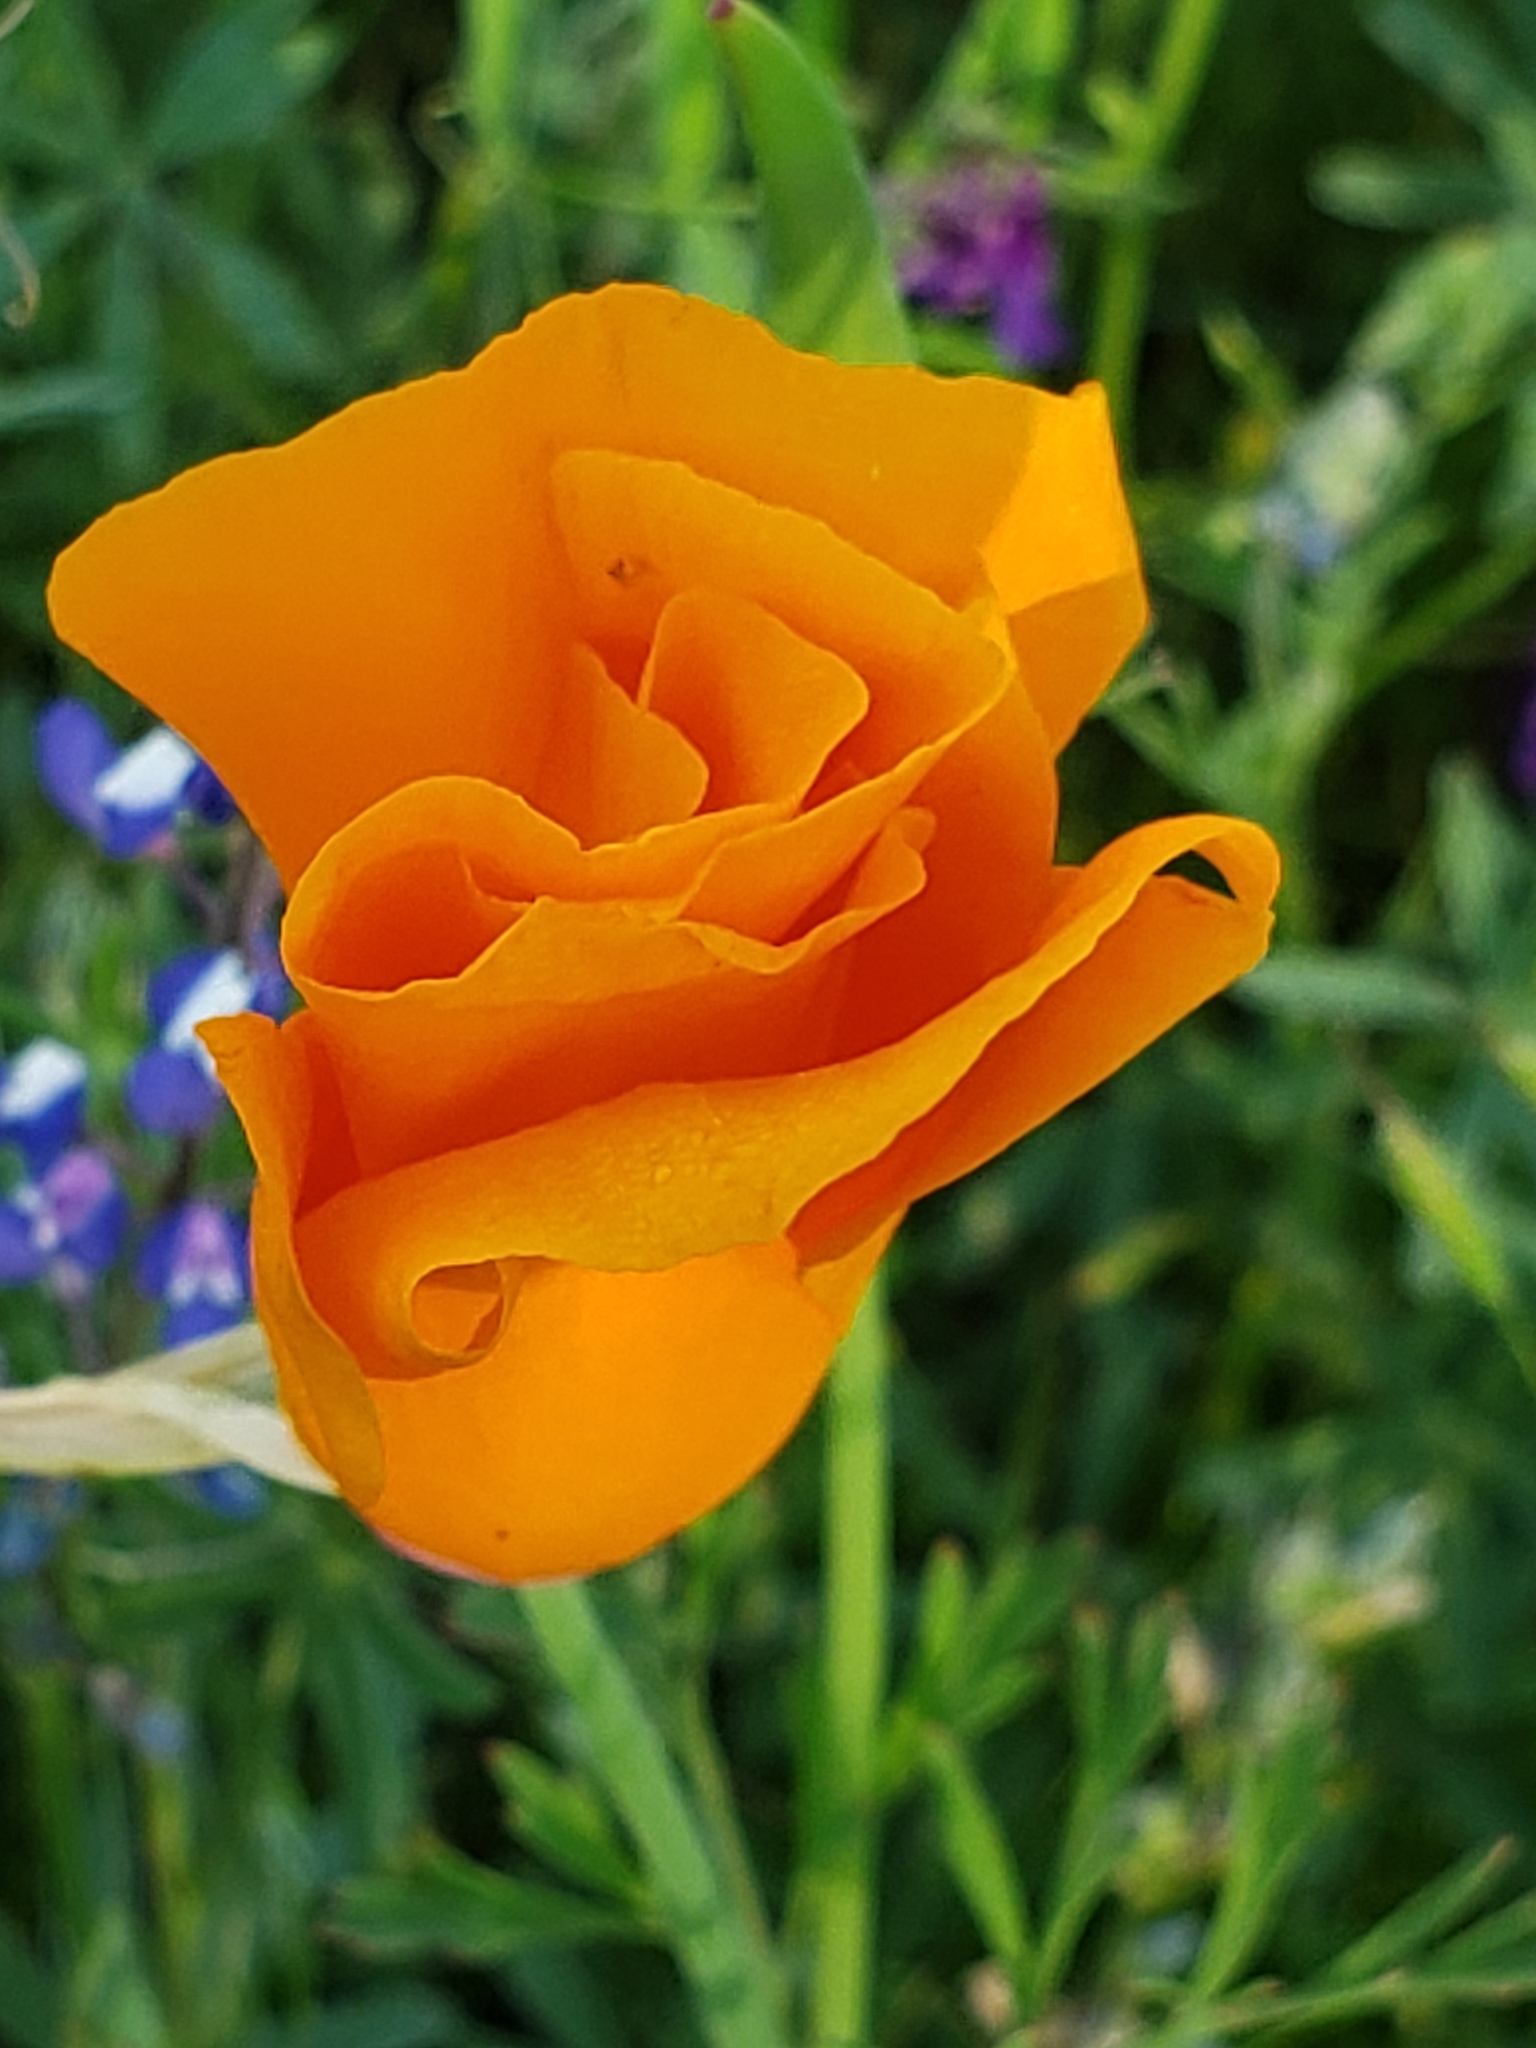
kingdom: Plantae
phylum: Tracheophyta
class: Magnoliopsida
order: Ranunculales
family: Papaveraceae
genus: Eschscholzia
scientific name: Eschscholzia californica
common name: California poppy
